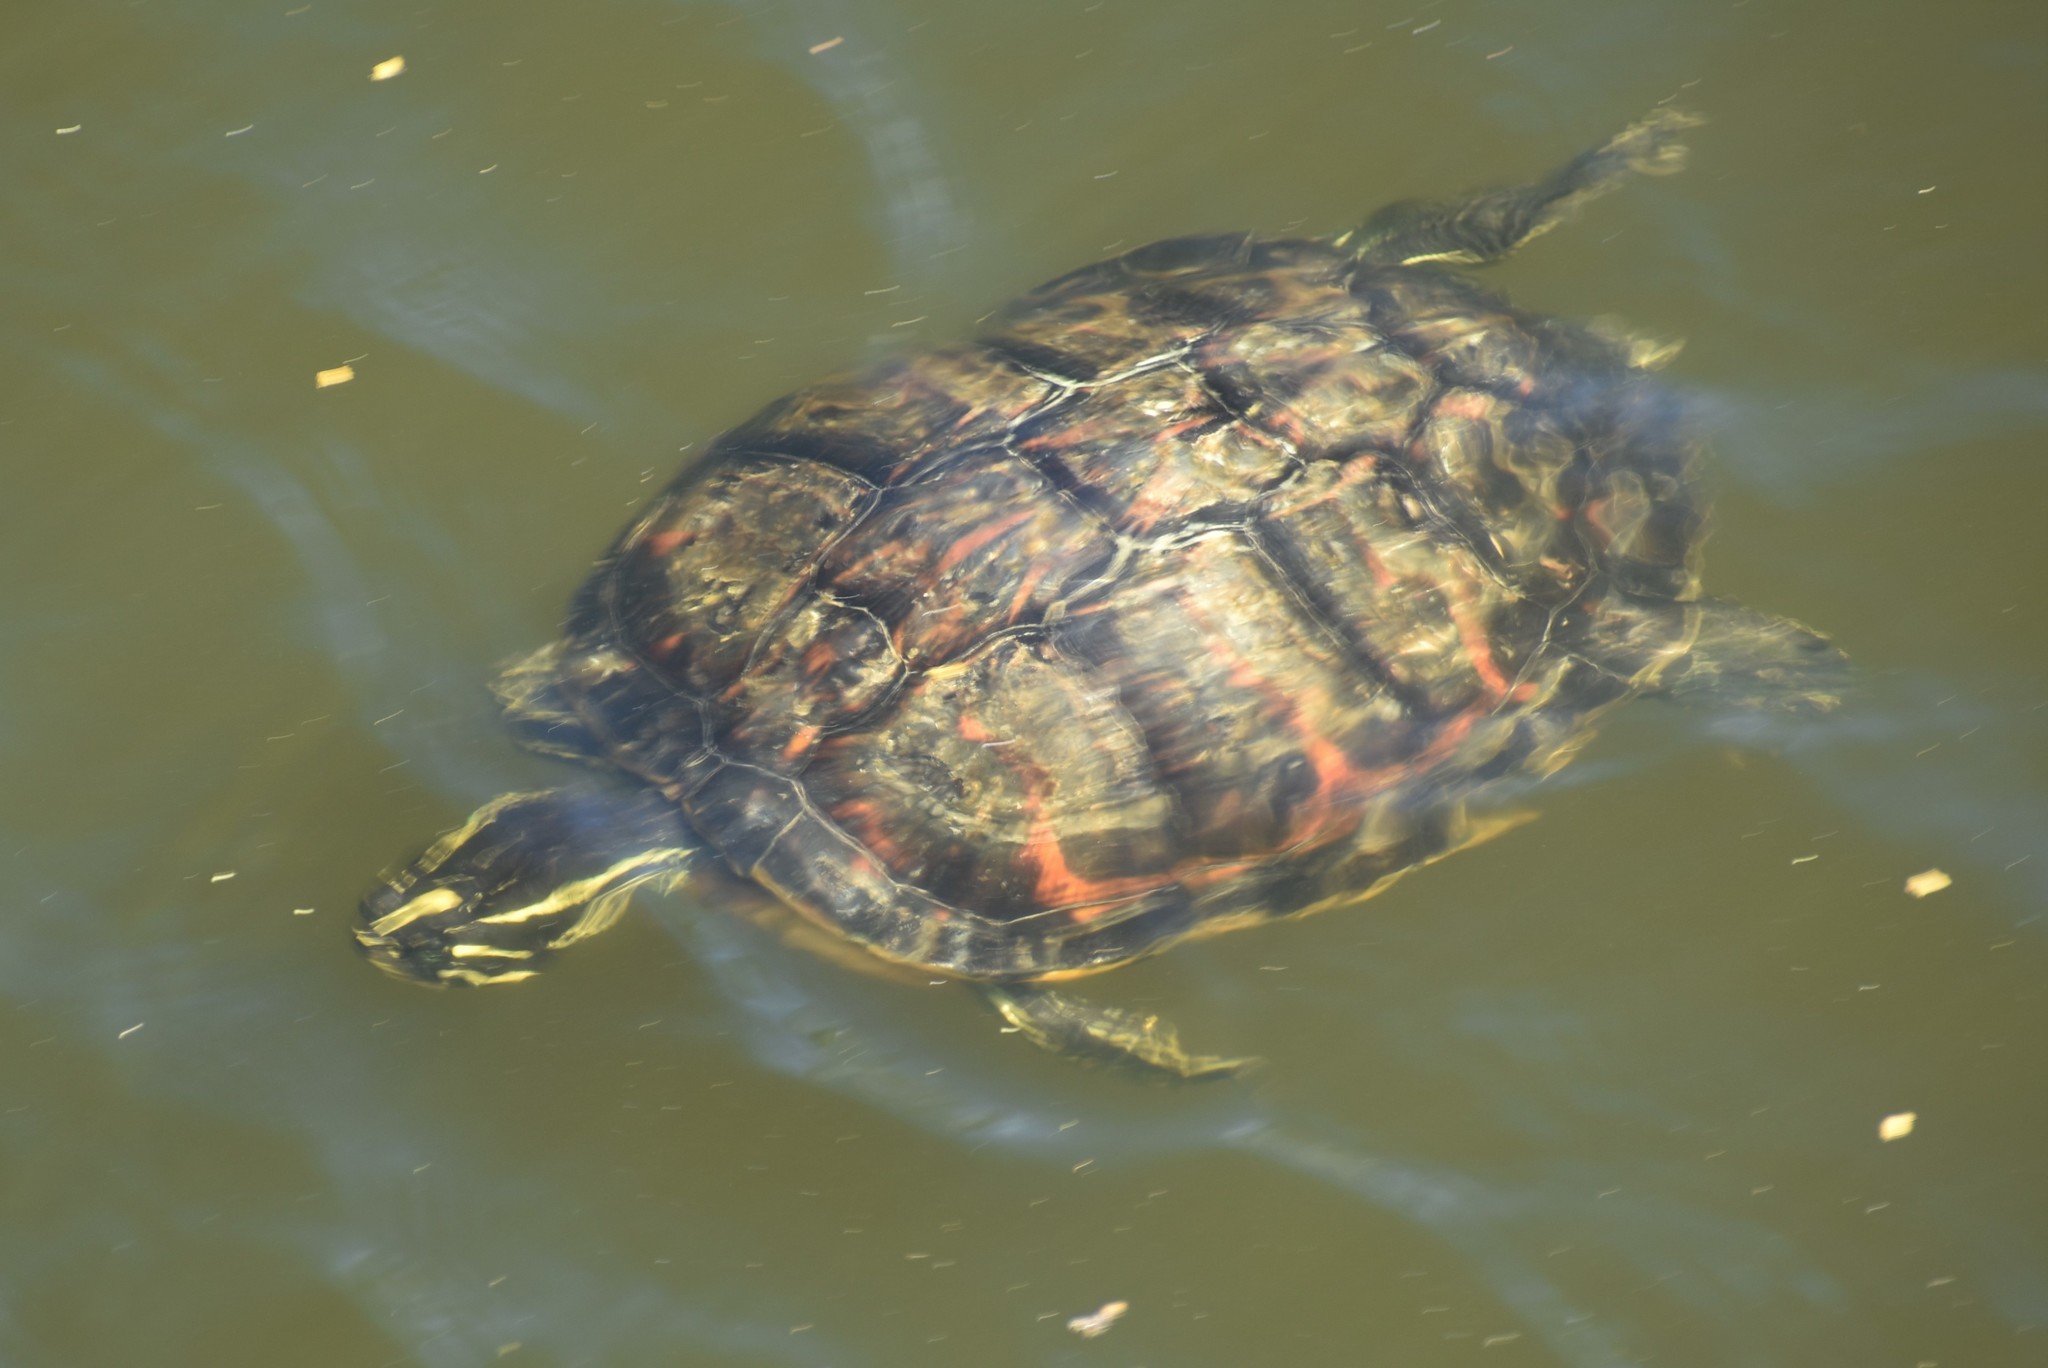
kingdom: Animalia
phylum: Chordata
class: Testudines
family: Emydidae
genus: Pseudemys
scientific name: Pseudemys nelsoni
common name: Florida red-bellied turtle
